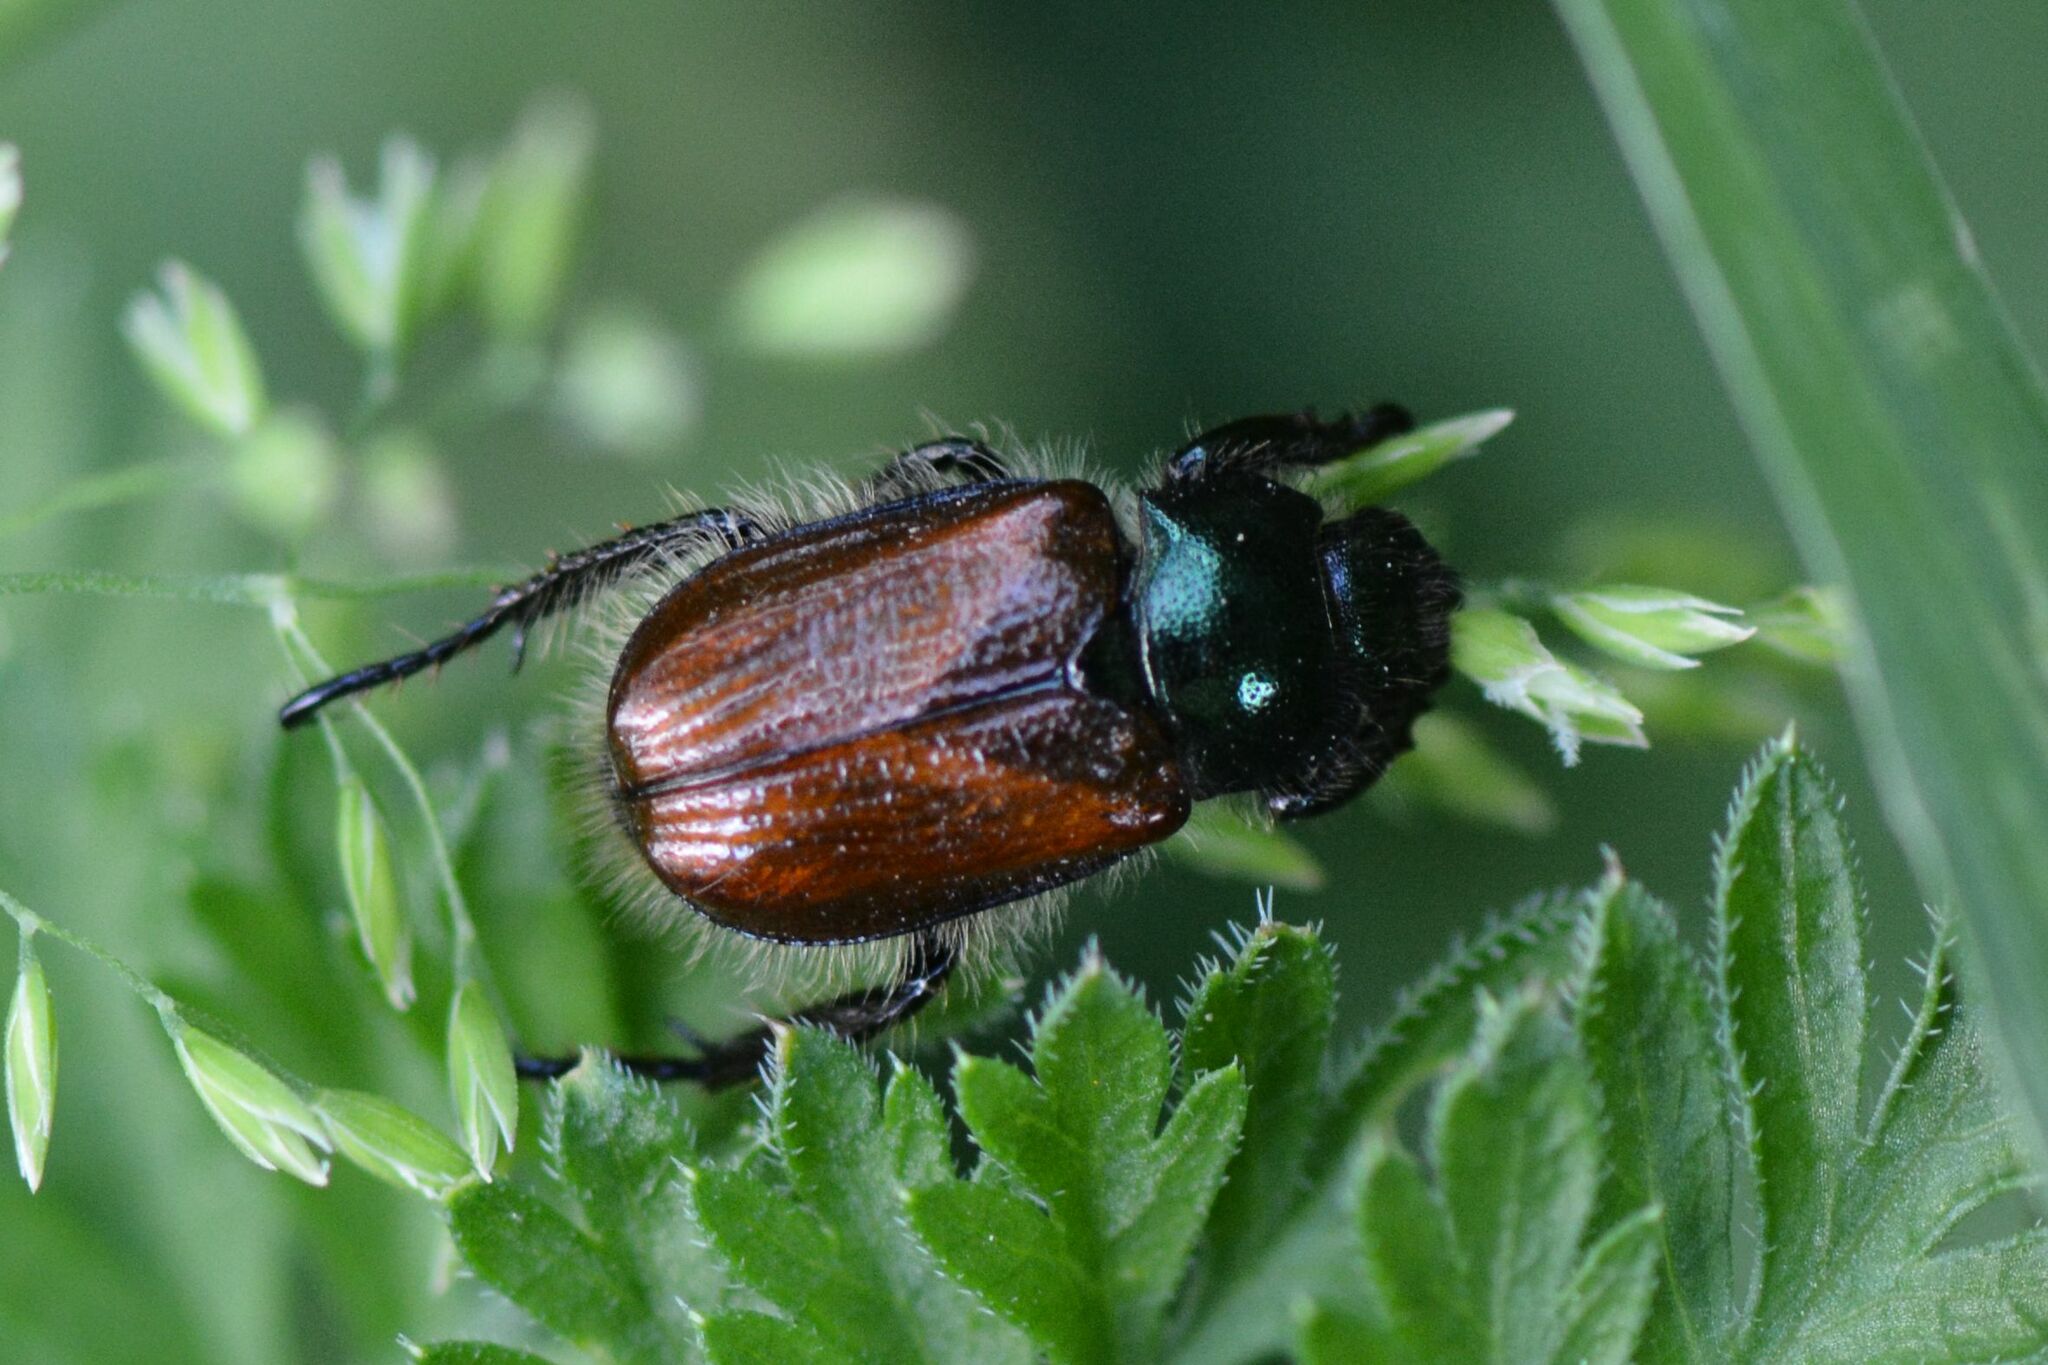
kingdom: Animalia
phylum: Arthropoda
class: Insecta
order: Coleoptera
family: Scarabaeidae
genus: Phyllopertha
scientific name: Phyllopertha horticola
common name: Garden chafer
